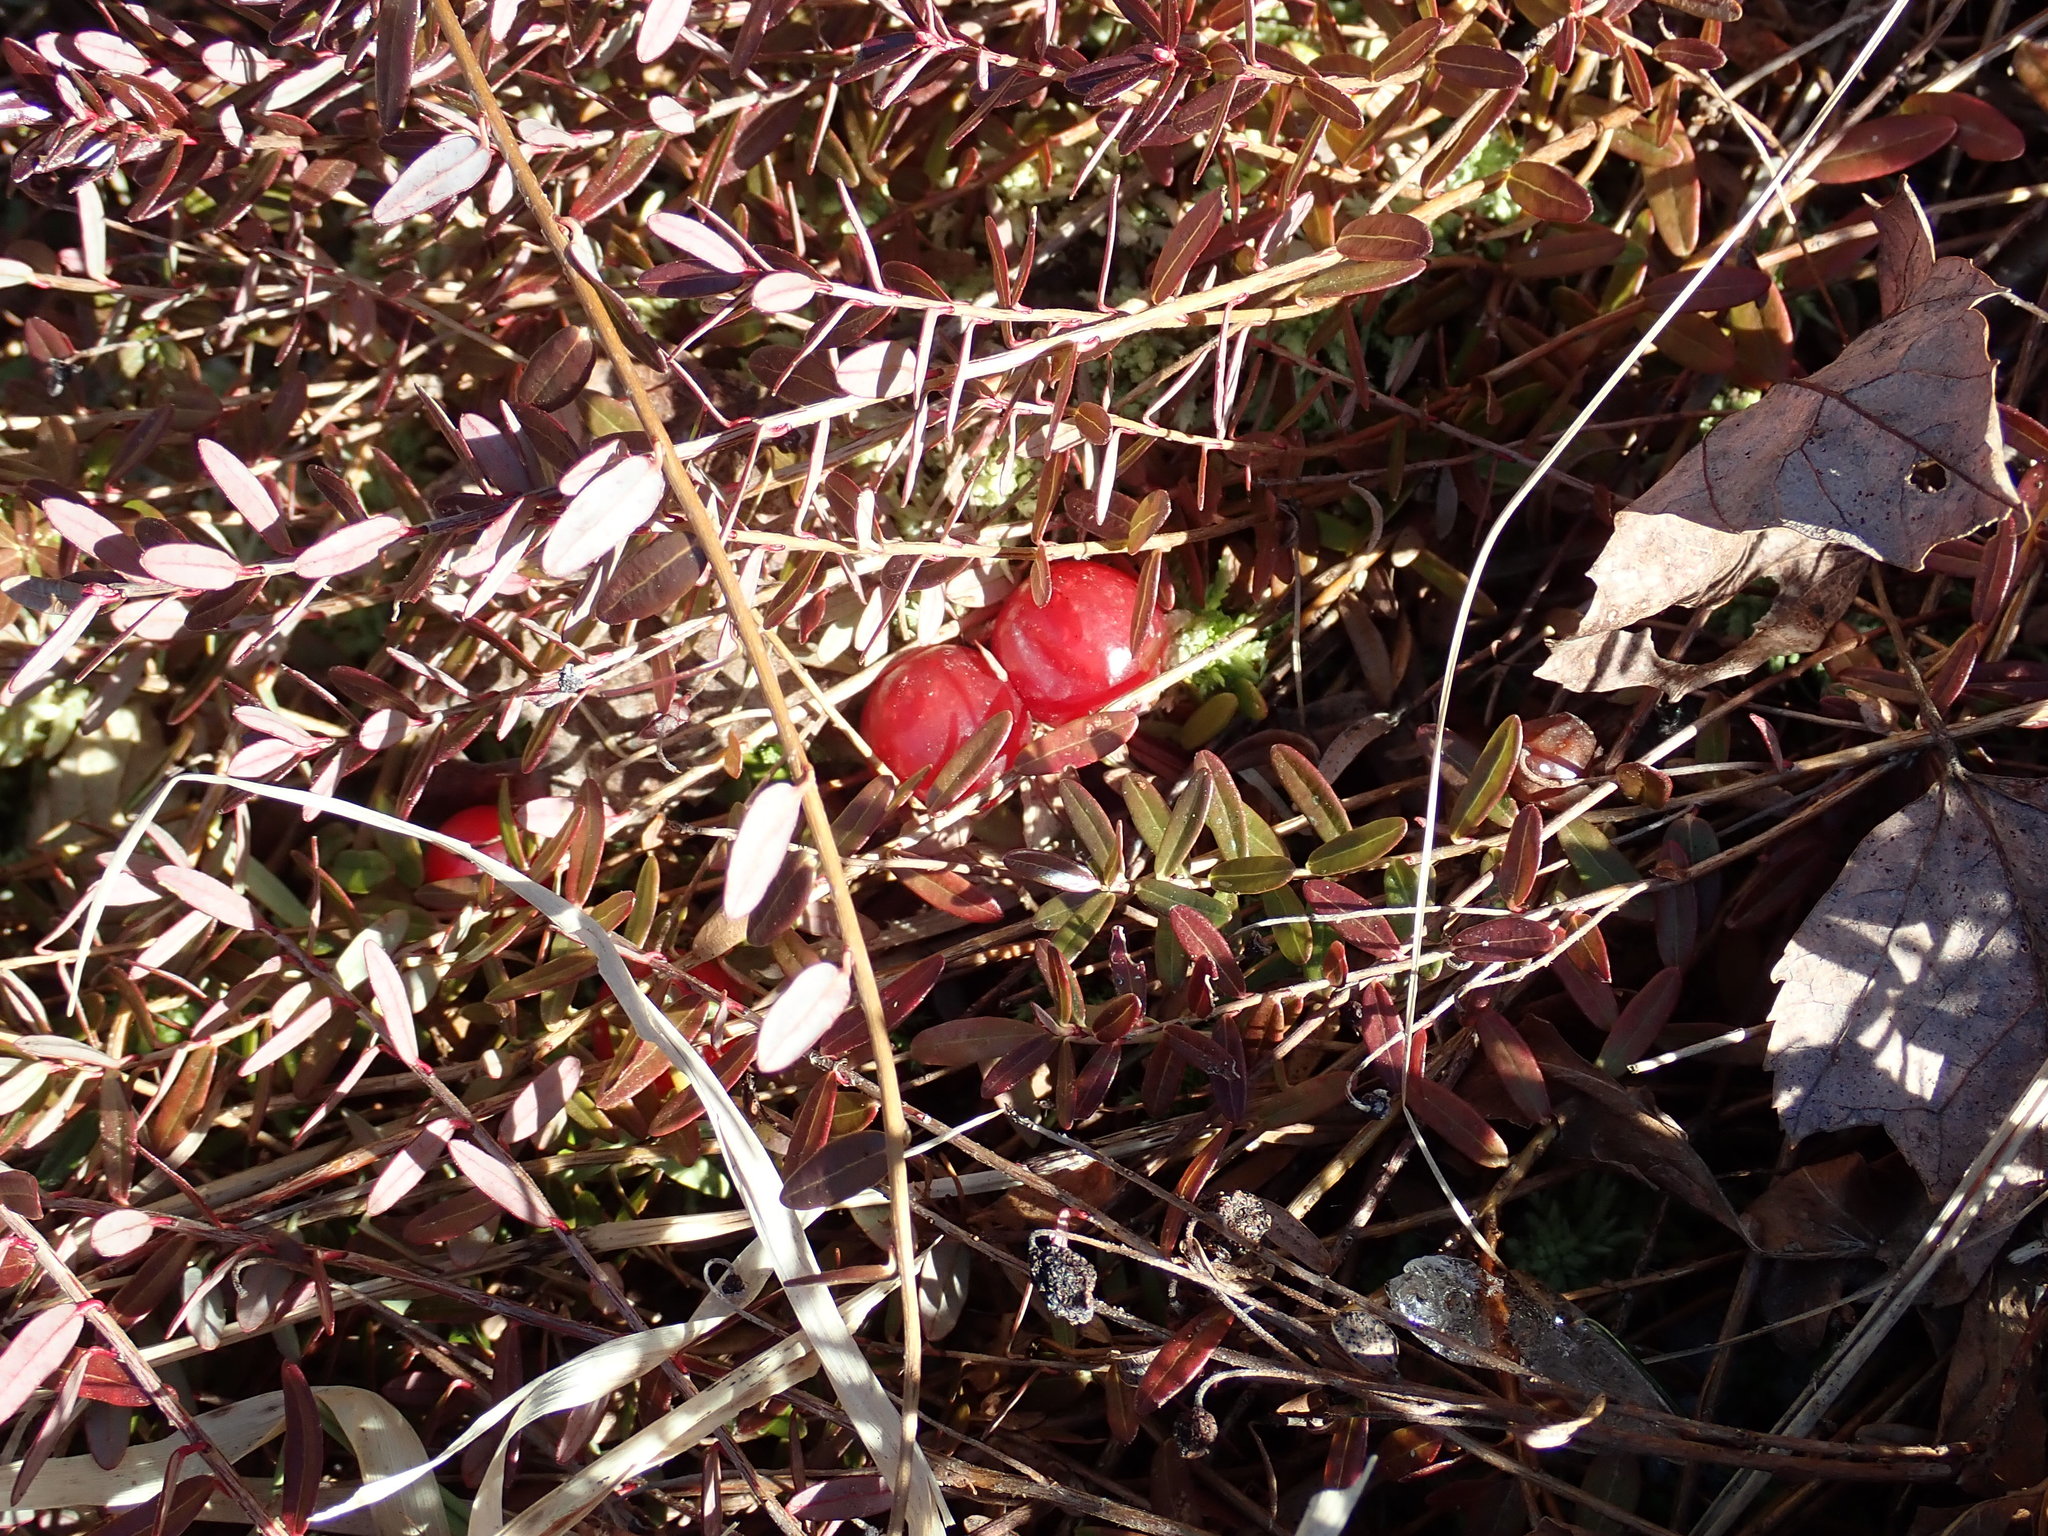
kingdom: Plantae
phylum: Tracheophyta
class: Magnoliopsida
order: Ericales
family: Ericaceae
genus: Vaccinium
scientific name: Vaccinium macrocarpon
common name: American cranberry
